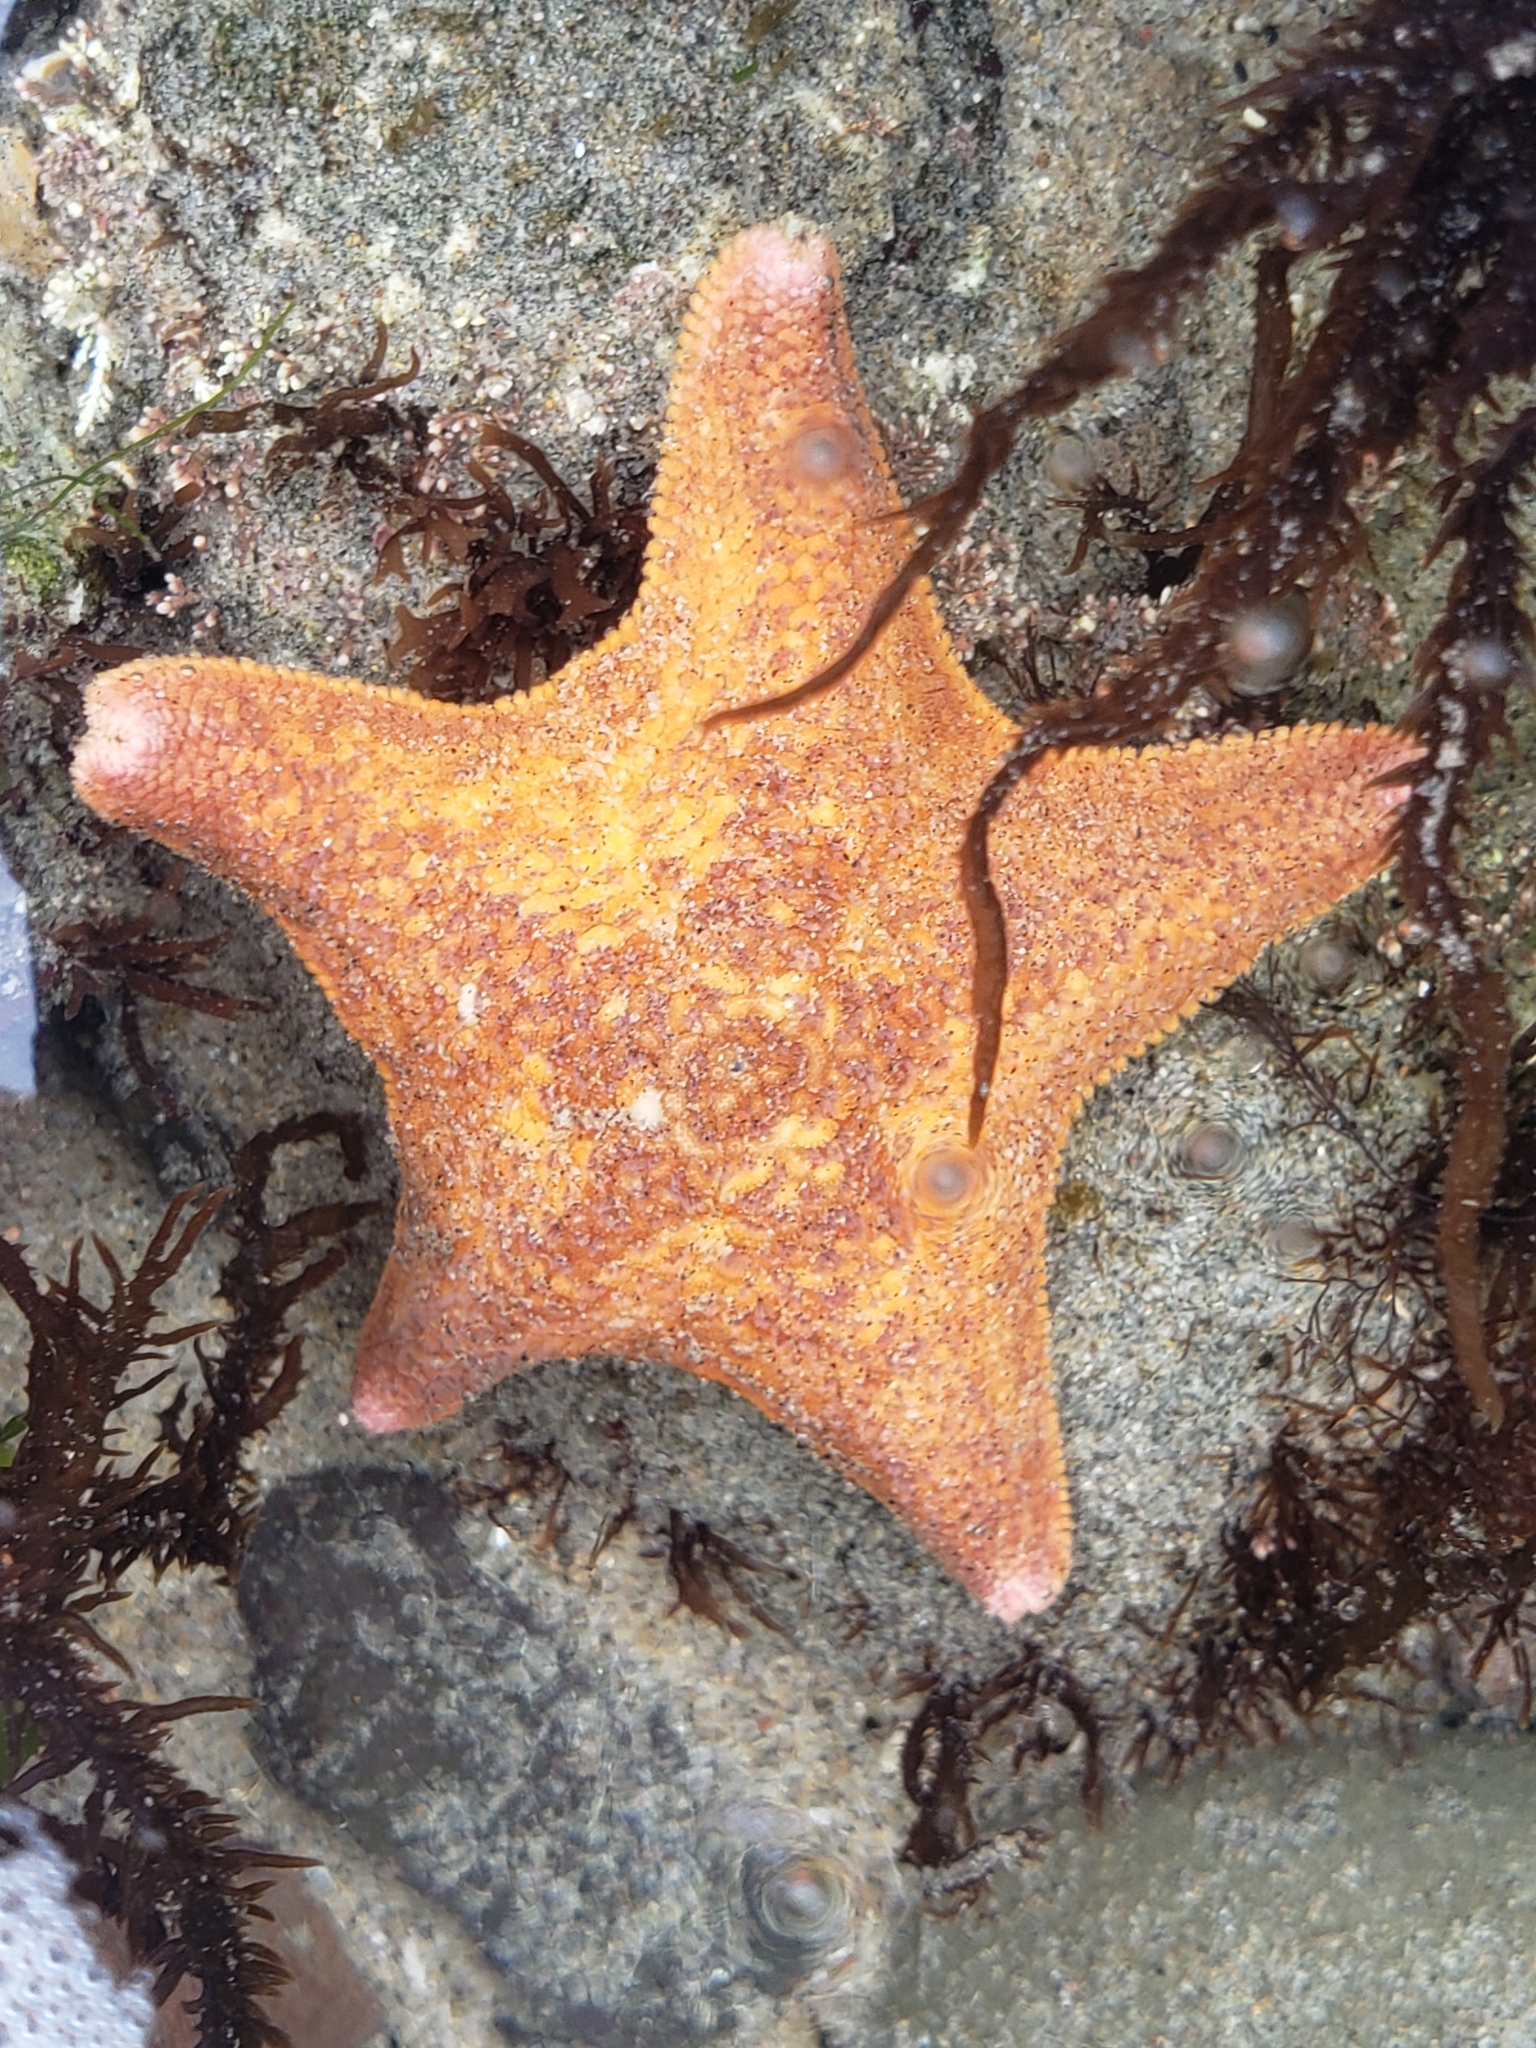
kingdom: Animalia
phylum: Echinodermata
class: Asteroidea
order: Valvatida
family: Asterinidae
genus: Patiria
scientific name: Patiria miniata
